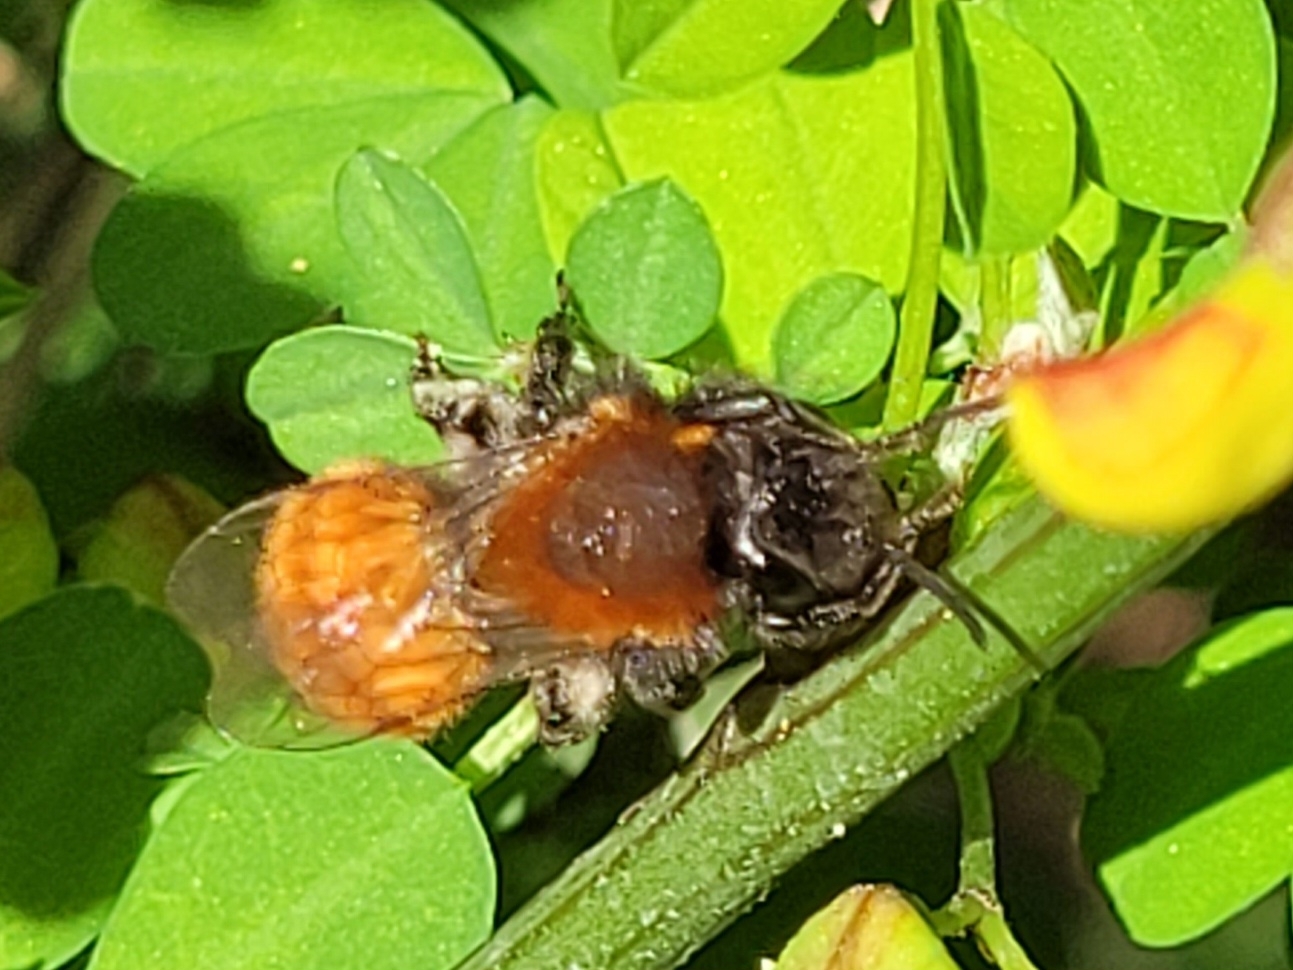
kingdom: Animalia
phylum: Arthropoda
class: Insecta
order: Hymenoptera
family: Andrenidae
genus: Andrena
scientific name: Andrena fulva
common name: Tawny mining bee
